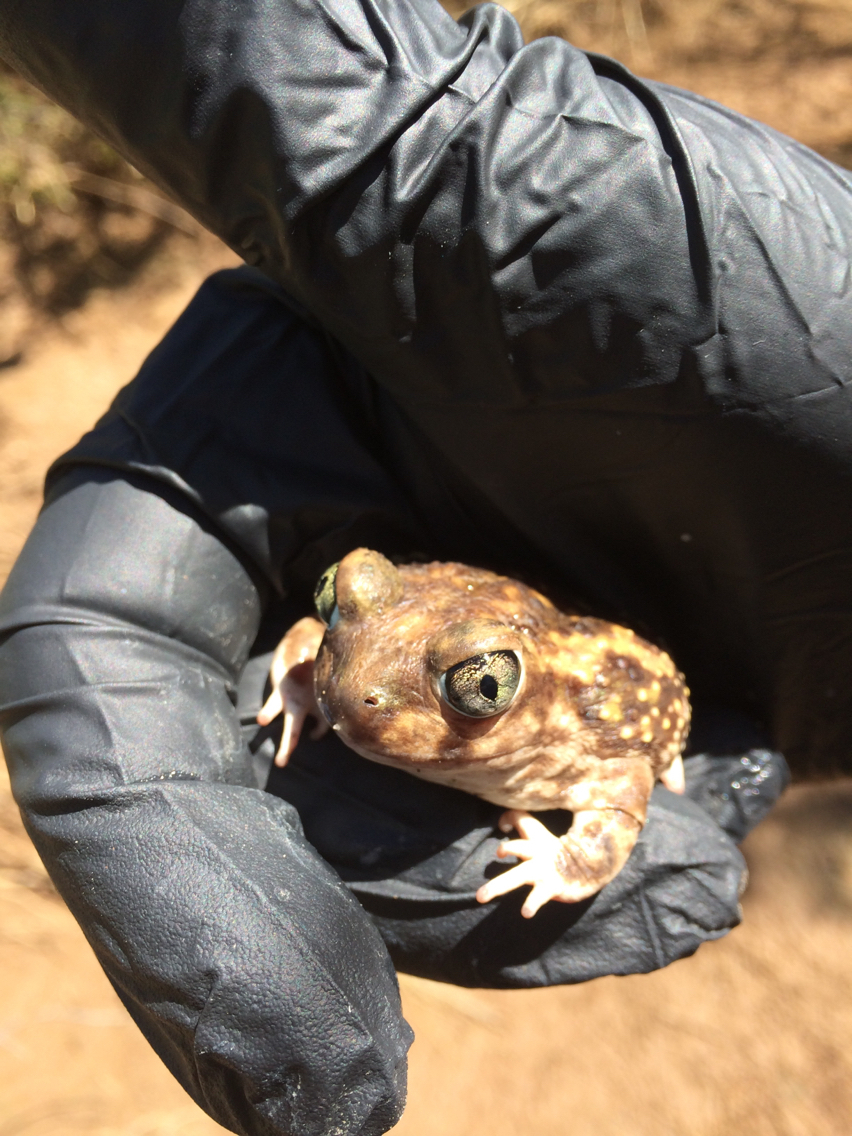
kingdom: Animalia
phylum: Chordata
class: Amphibia
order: Anura
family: Scaphiopodidae
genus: Scaphiopus
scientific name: Scaphiopus couchii
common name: Couch's spadefoot toad
